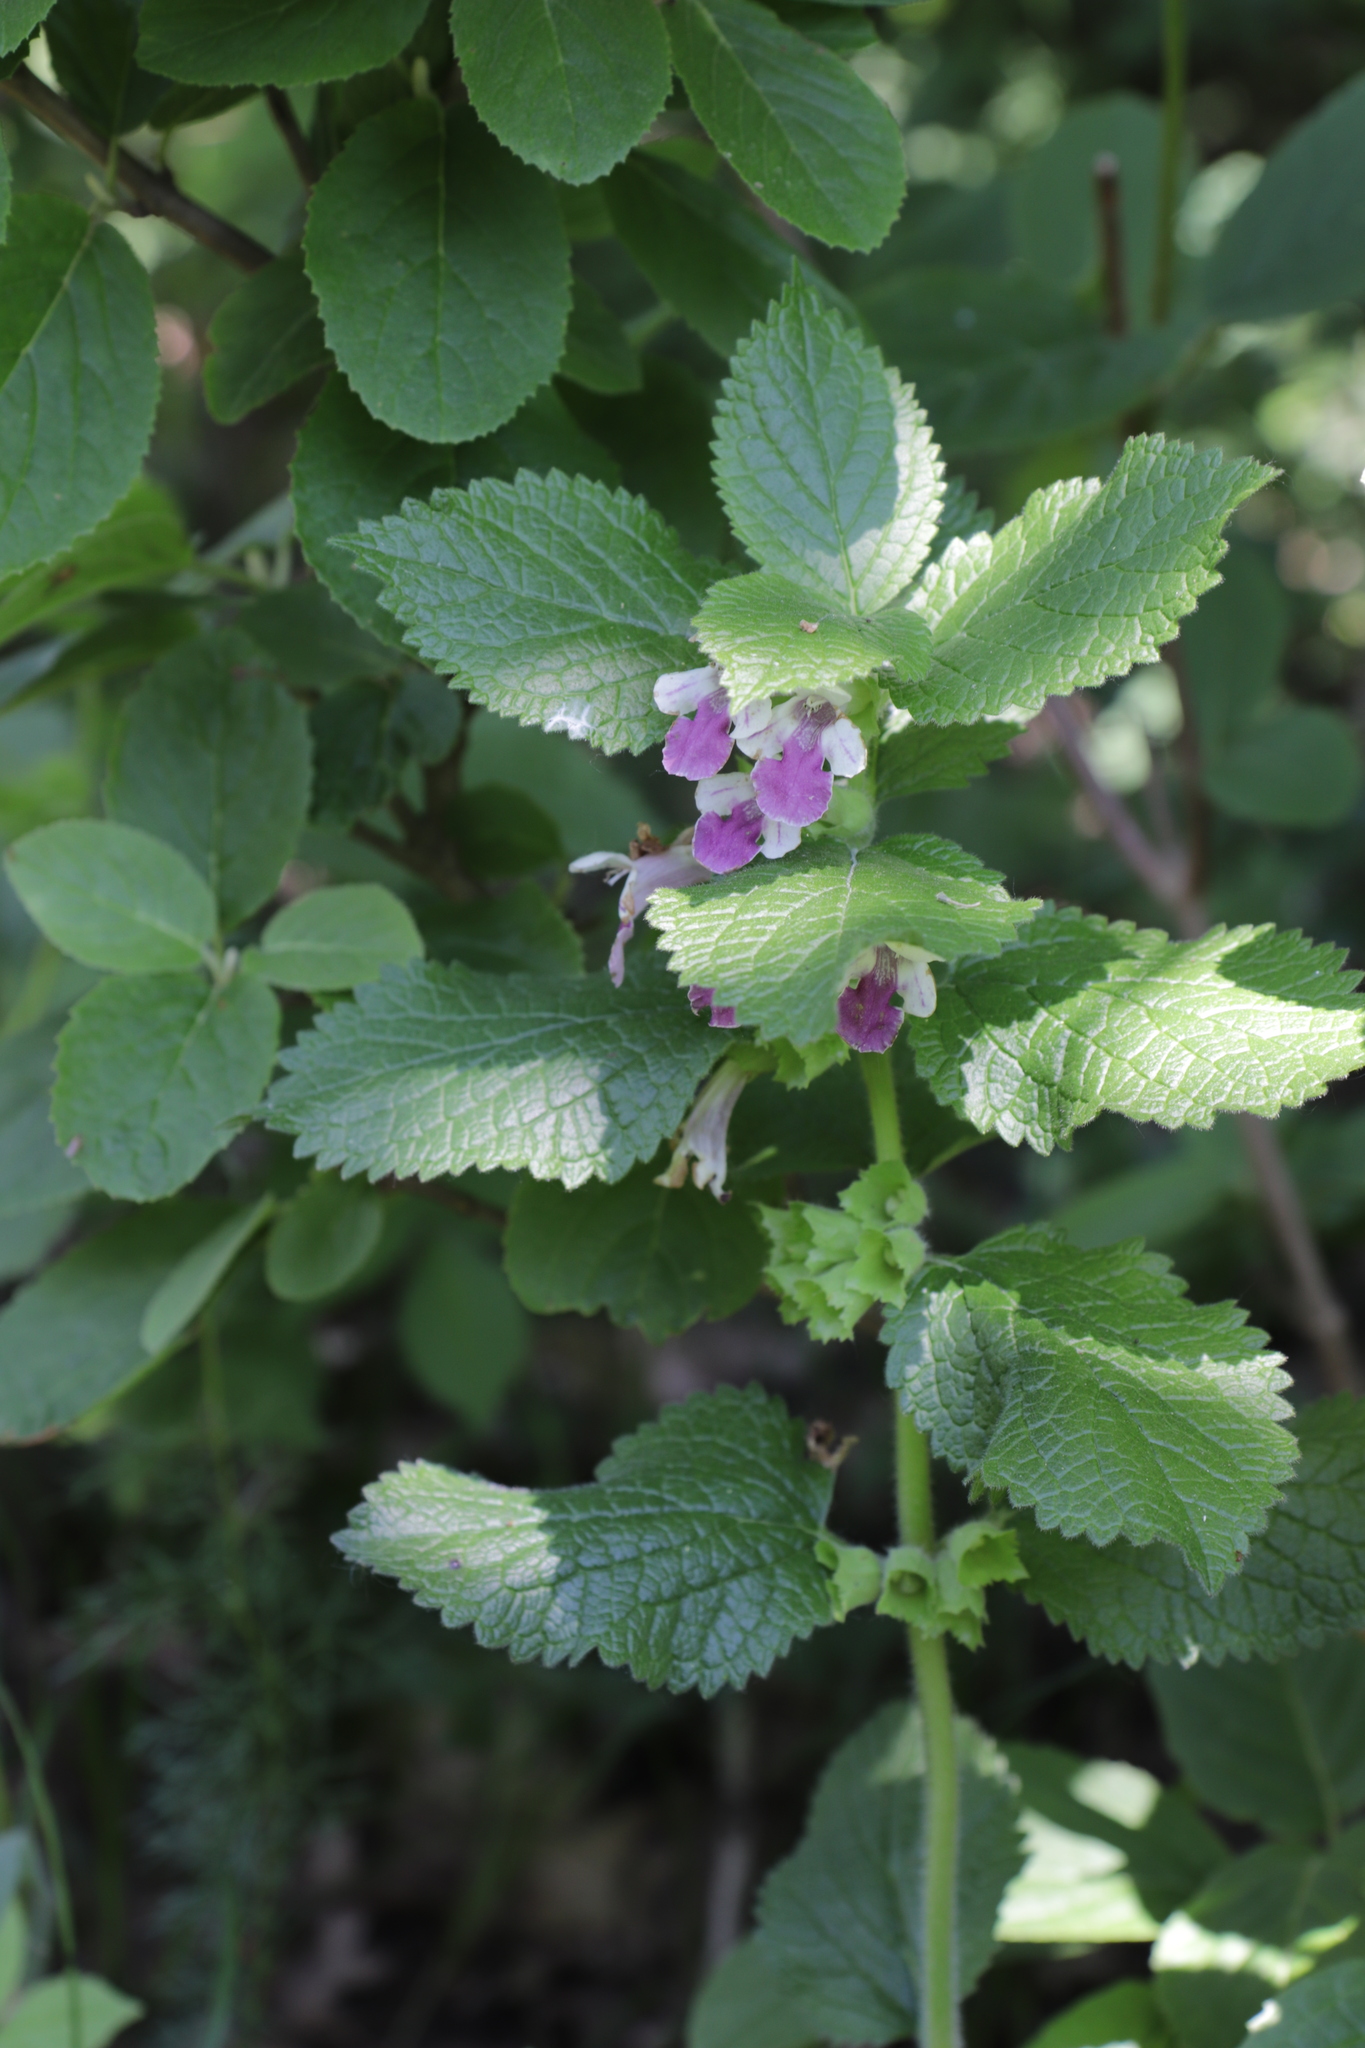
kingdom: Plantae
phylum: Tracheophyta
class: Magnoliopsida
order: Lamiales
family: Lamiaceae
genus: Melittis
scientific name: Melittis melissophyllum
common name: Bastard balm
